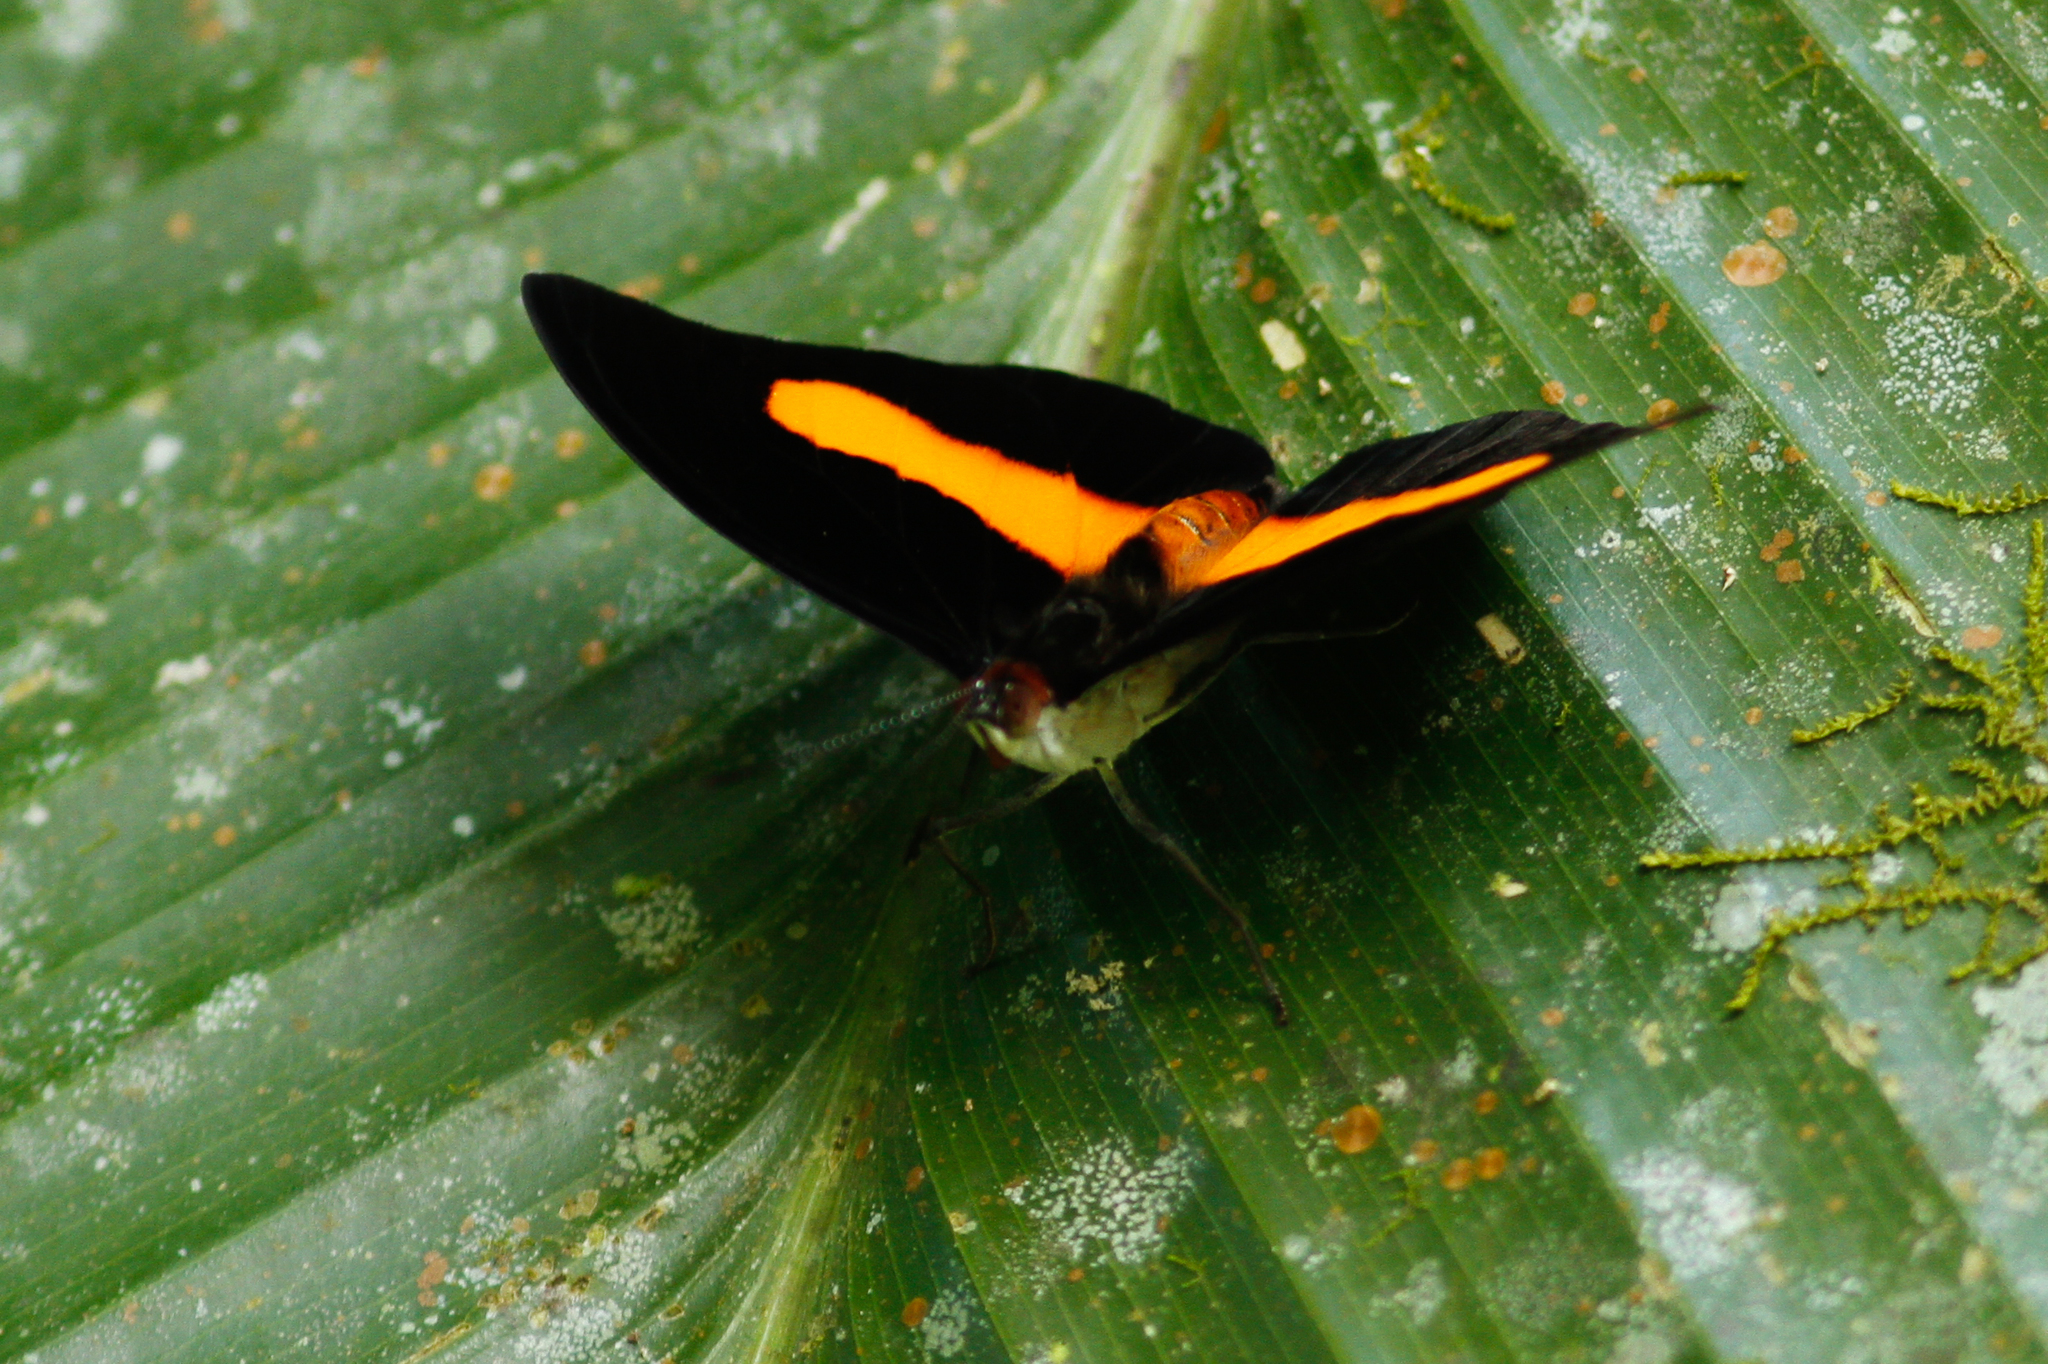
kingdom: Animalia
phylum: Arthropoda
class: Insecta
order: Lepidoptera
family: Nymphalidae
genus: Catonephele
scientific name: Catonephele acontius
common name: Unspotted firewing
